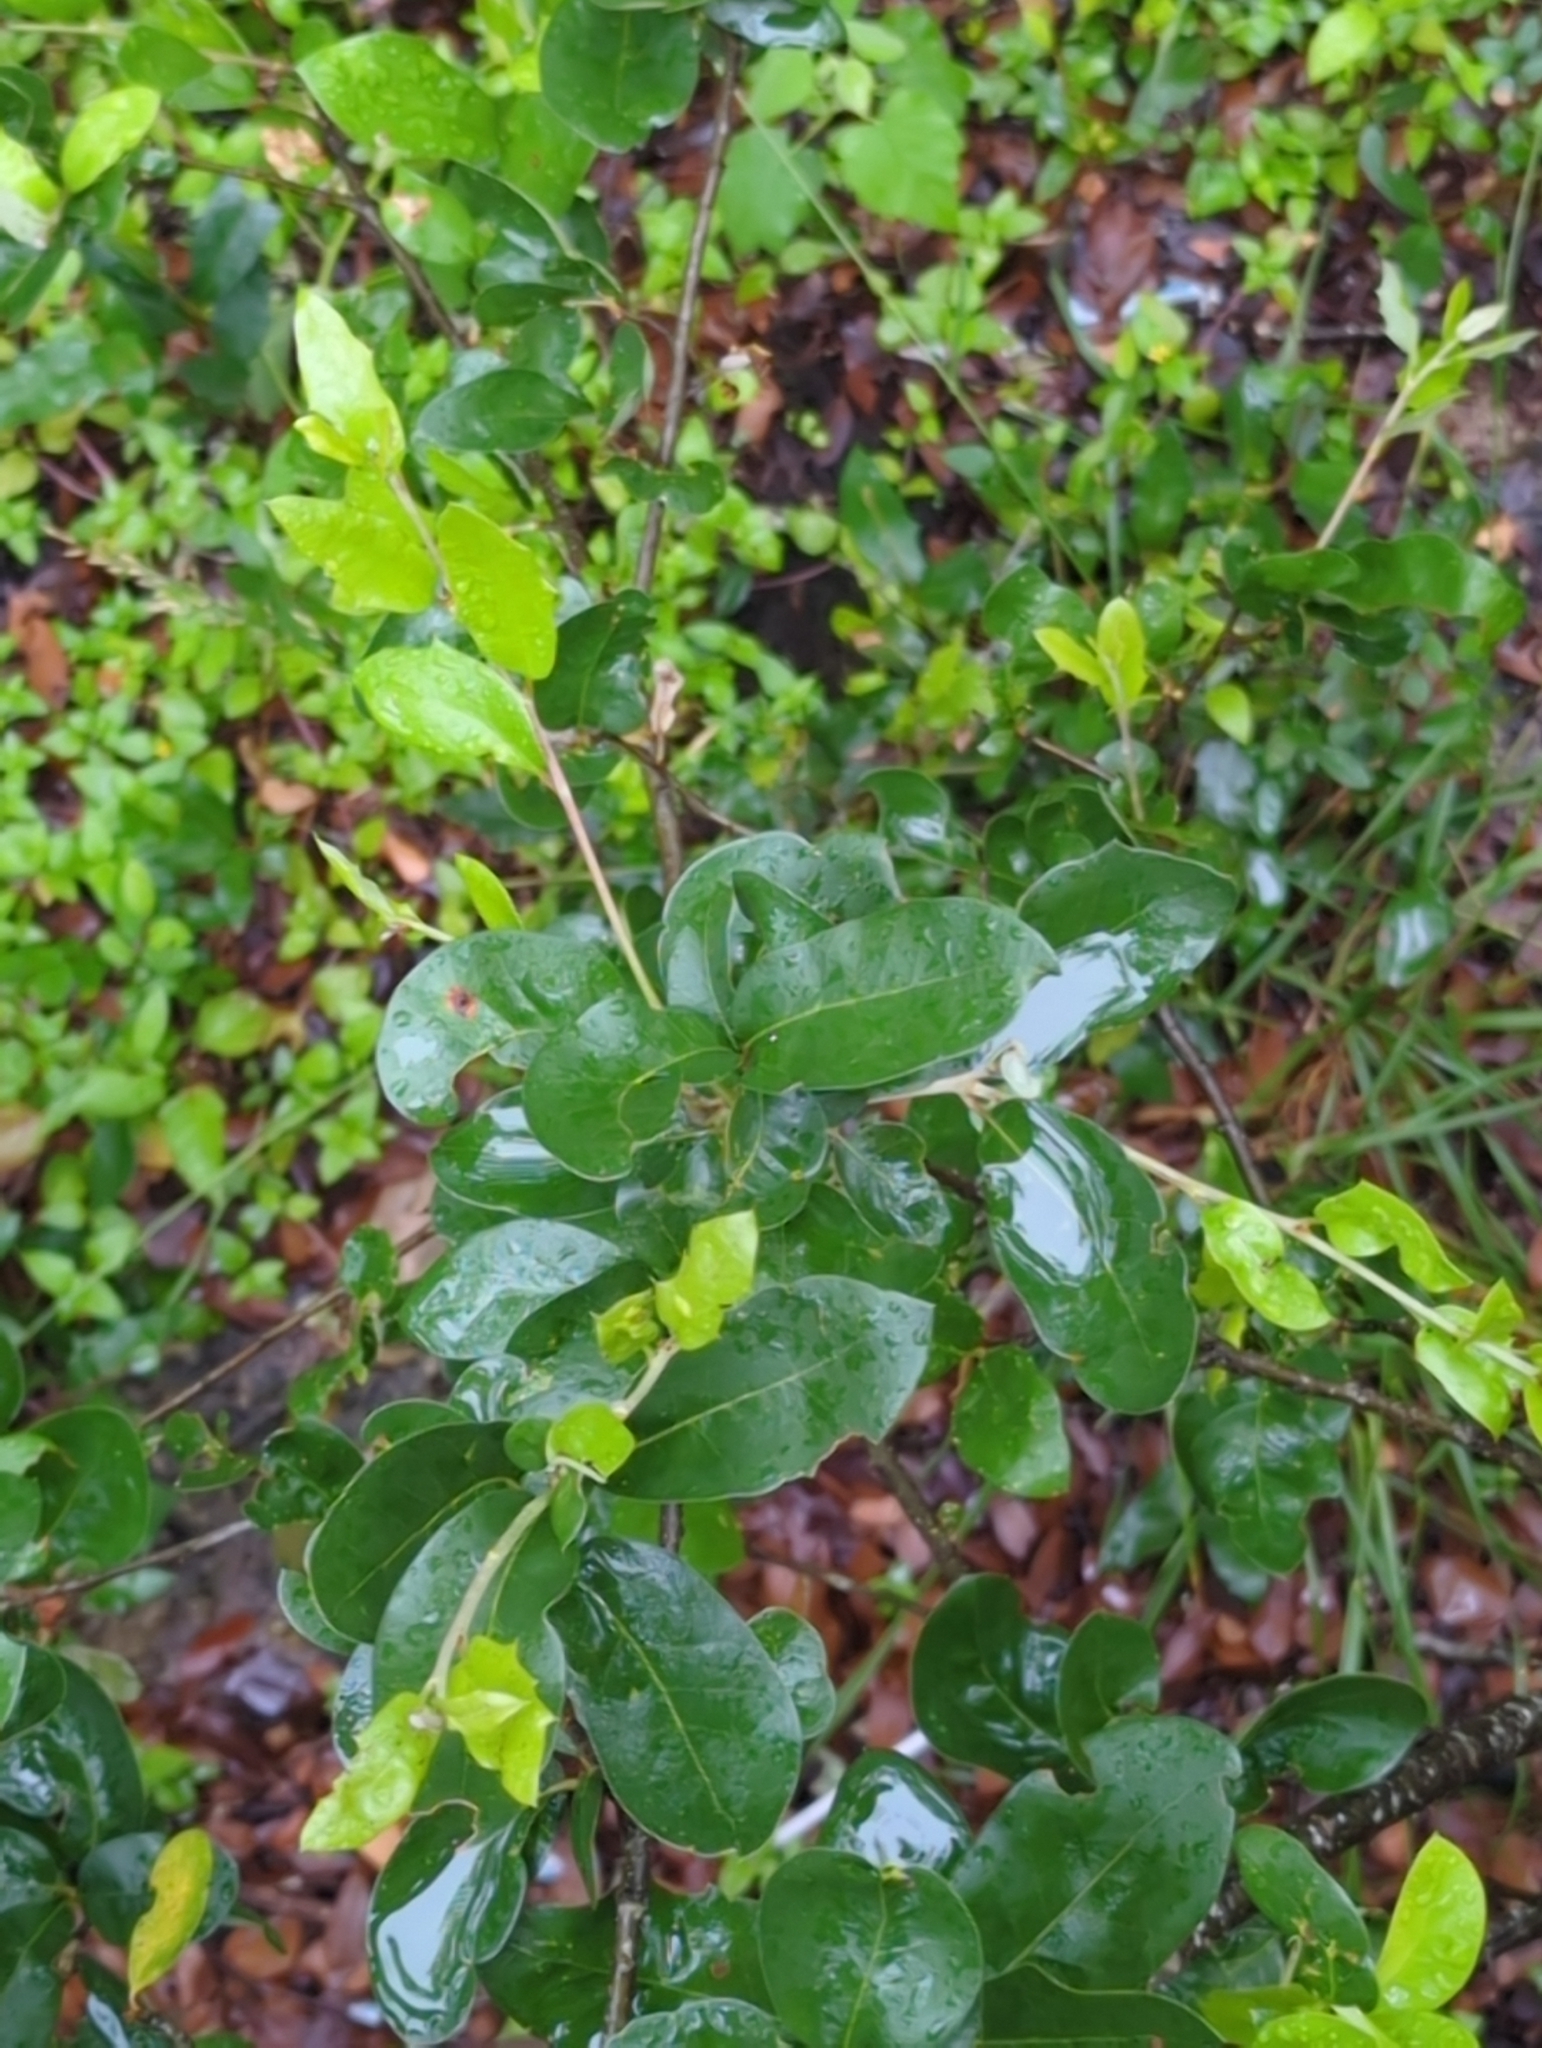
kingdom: Plantae
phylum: Tracheophyta
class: Magnoliopsida
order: Fagales
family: Fagaceae
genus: Quercus
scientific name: Quercus fusiformis
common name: Texas live oak
